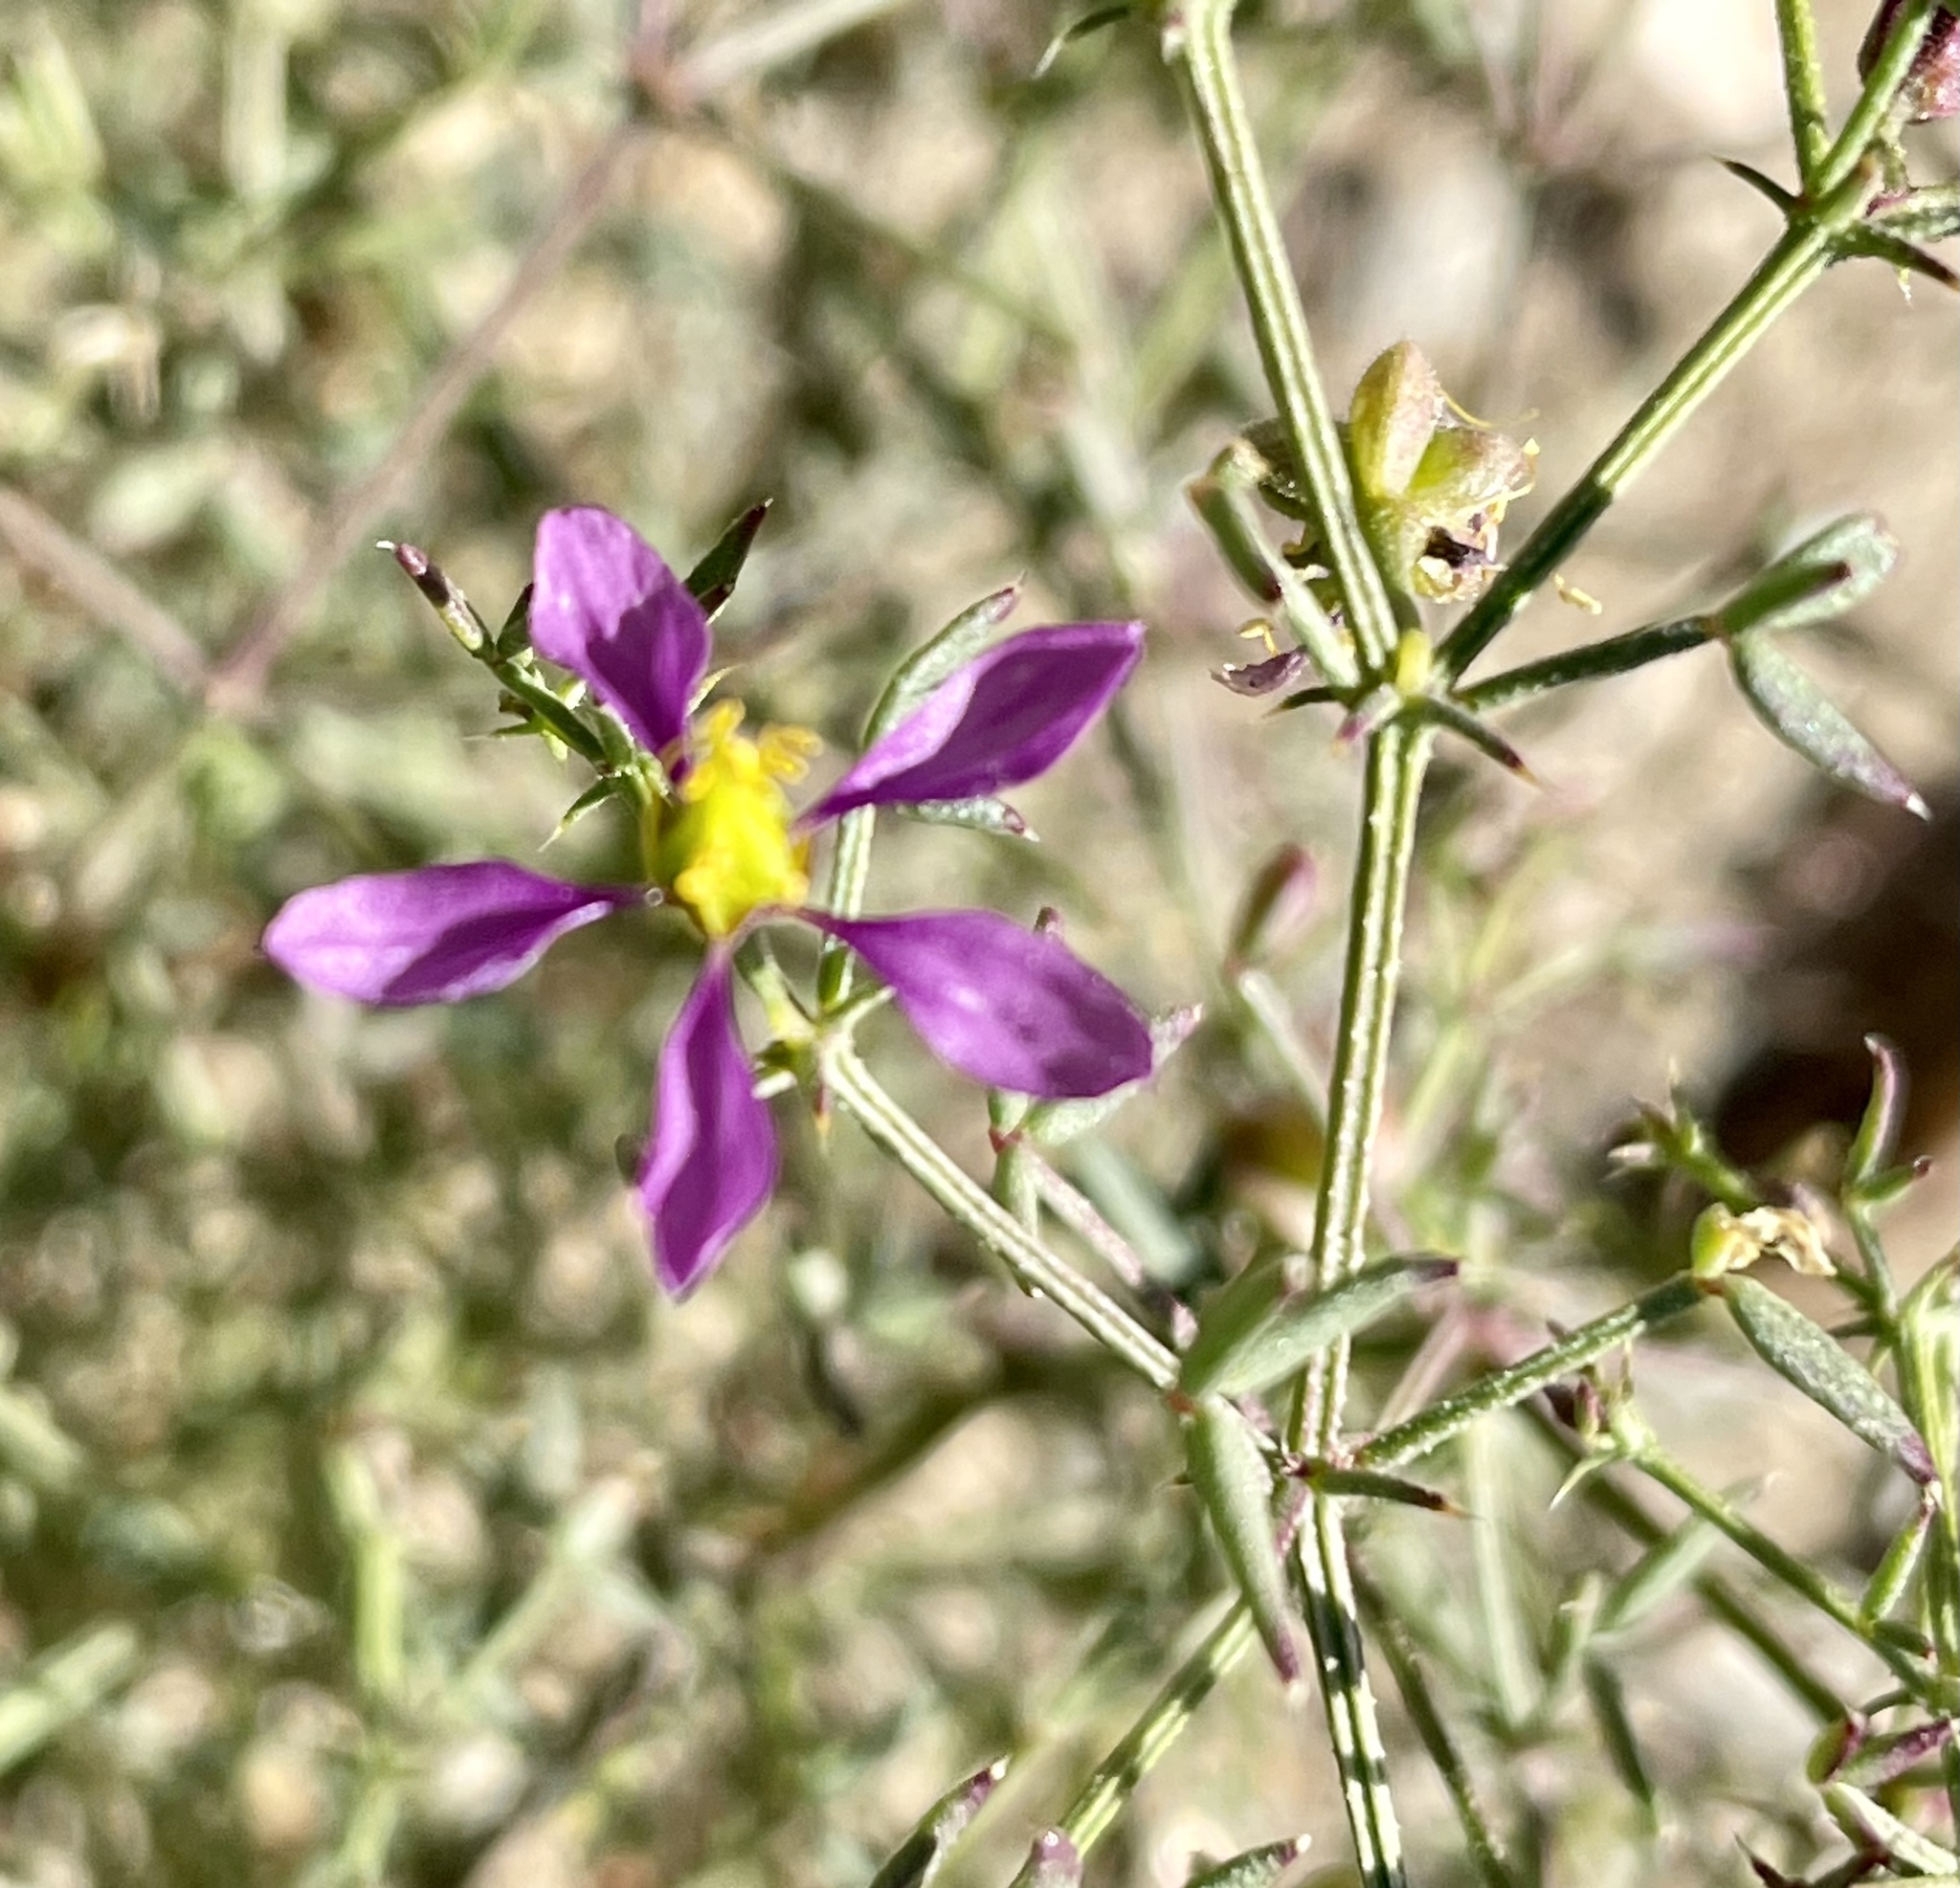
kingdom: Plantae
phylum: Tracheophyta
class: Magnoliopsida
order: Zygophyllales
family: Zygophyllaceae
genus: Fagonia
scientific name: Fagonia laevis
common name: California fagonbush
